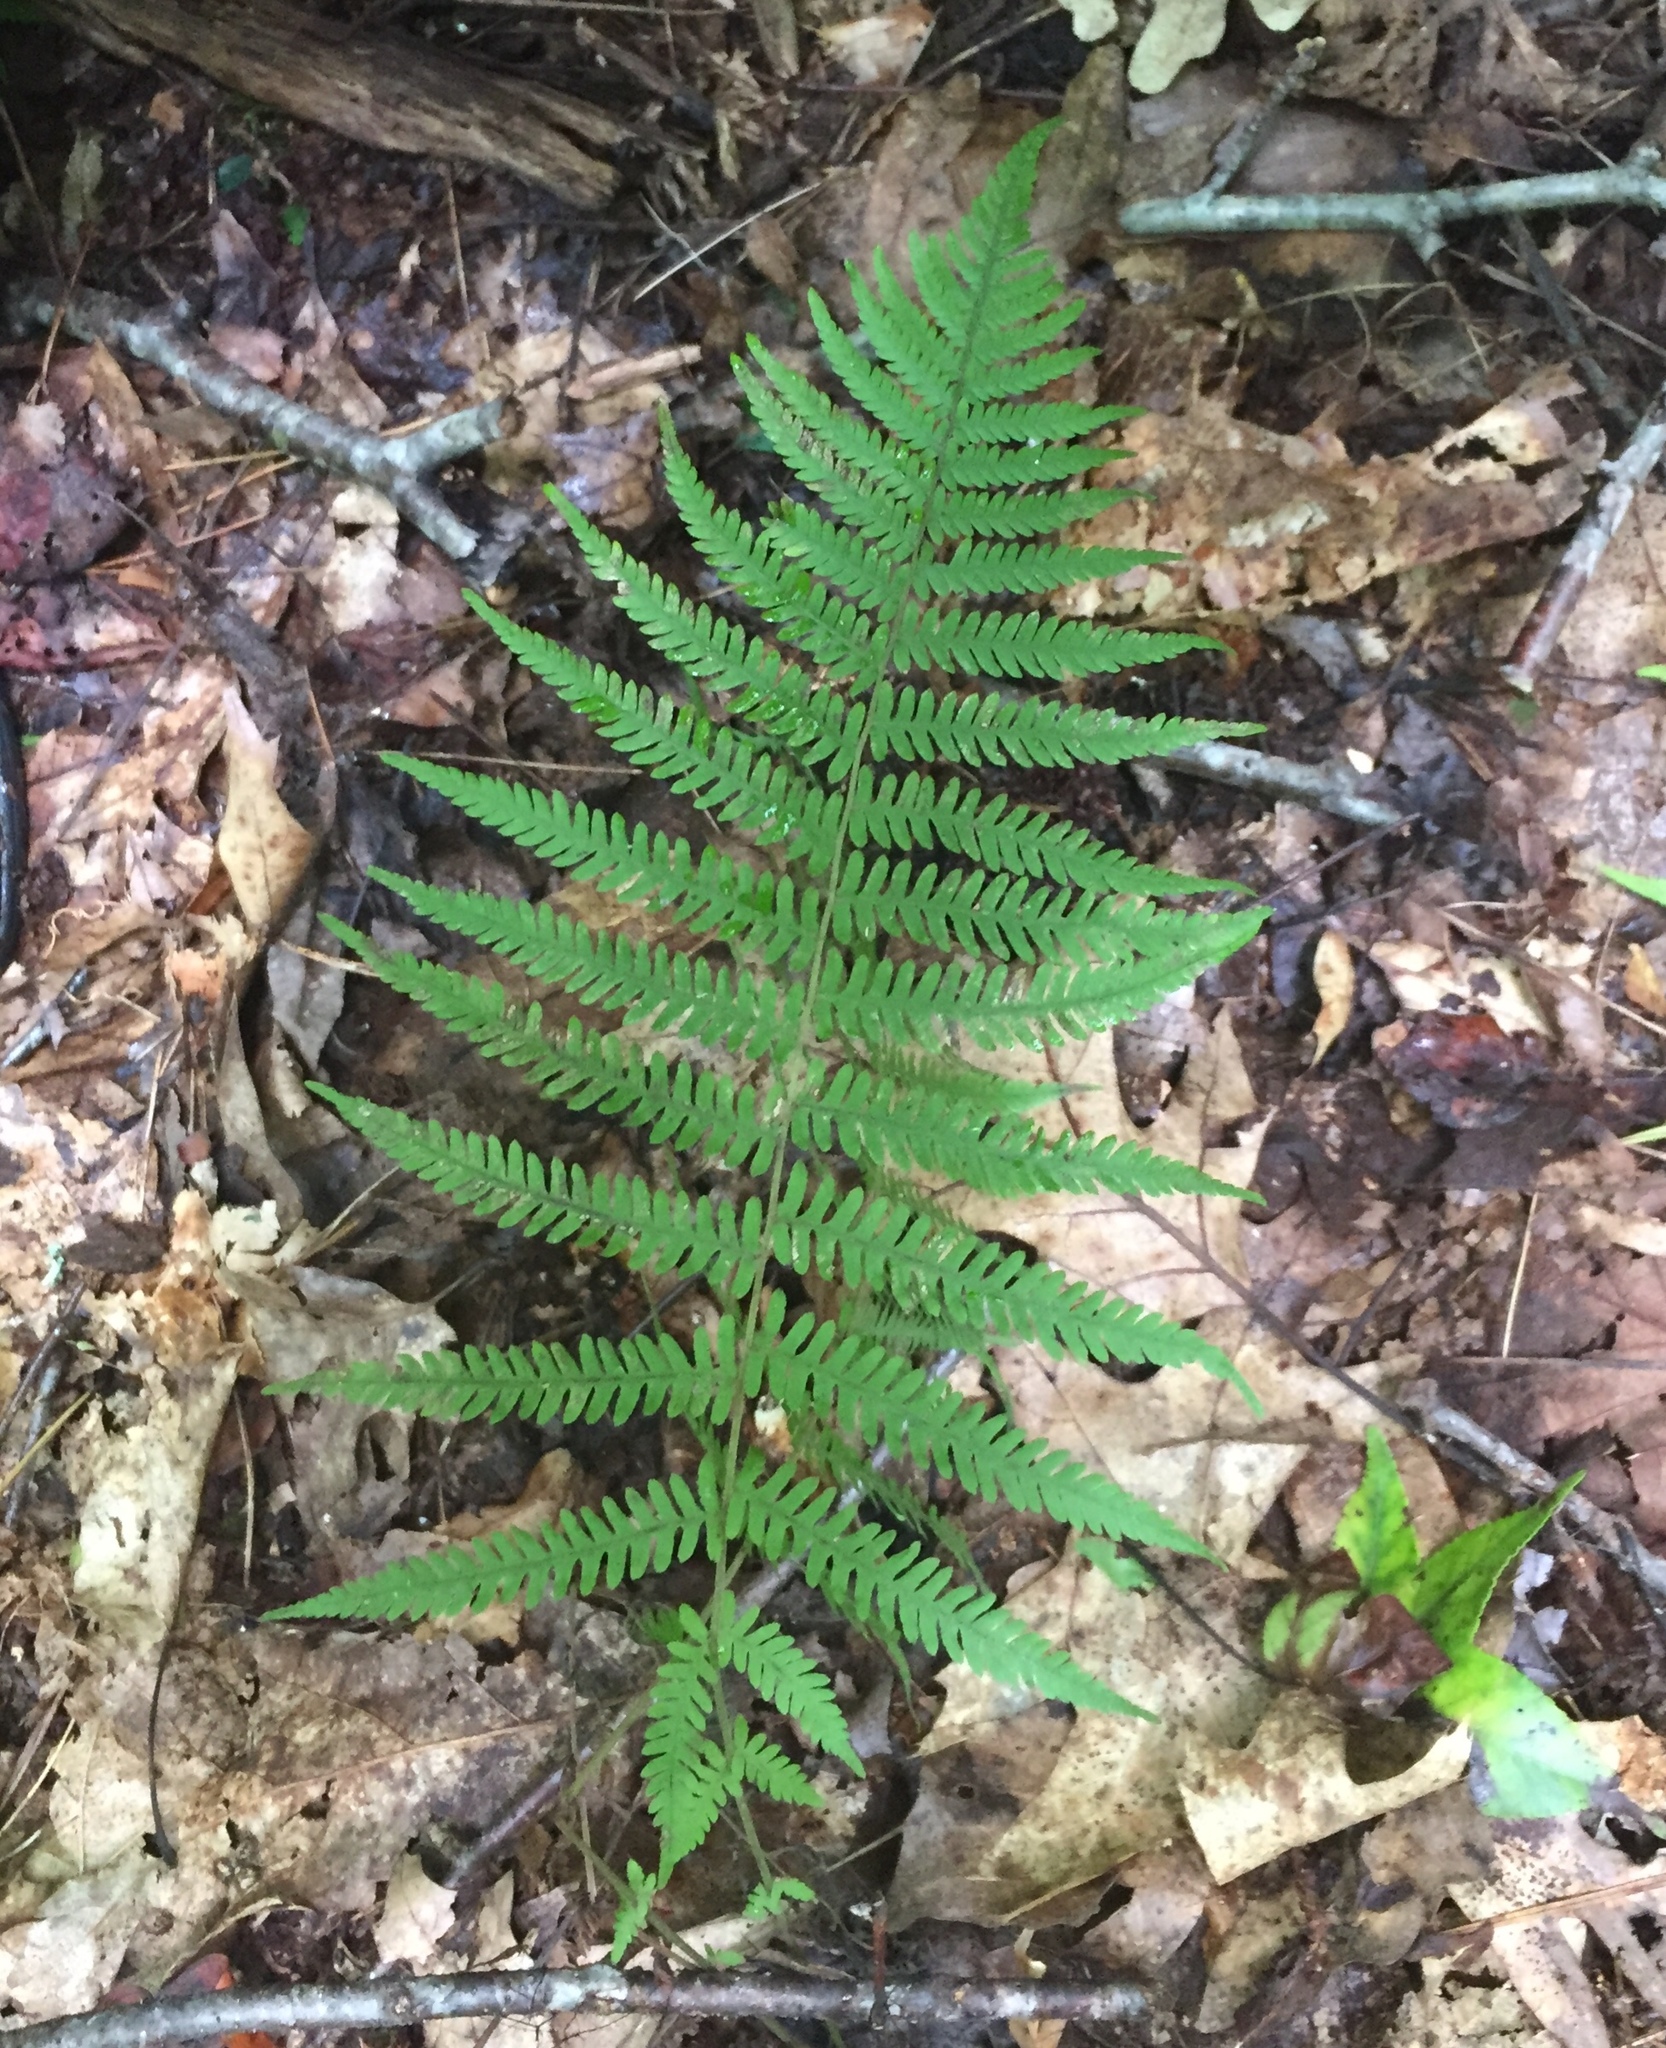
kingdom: Plantae
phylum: Tracheophyta
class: Polypodiopsida
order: Polypodiales
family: Thelypteridaceae
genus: Amauropelta
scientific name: Amauropelta noveboracensis
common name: New york fern
